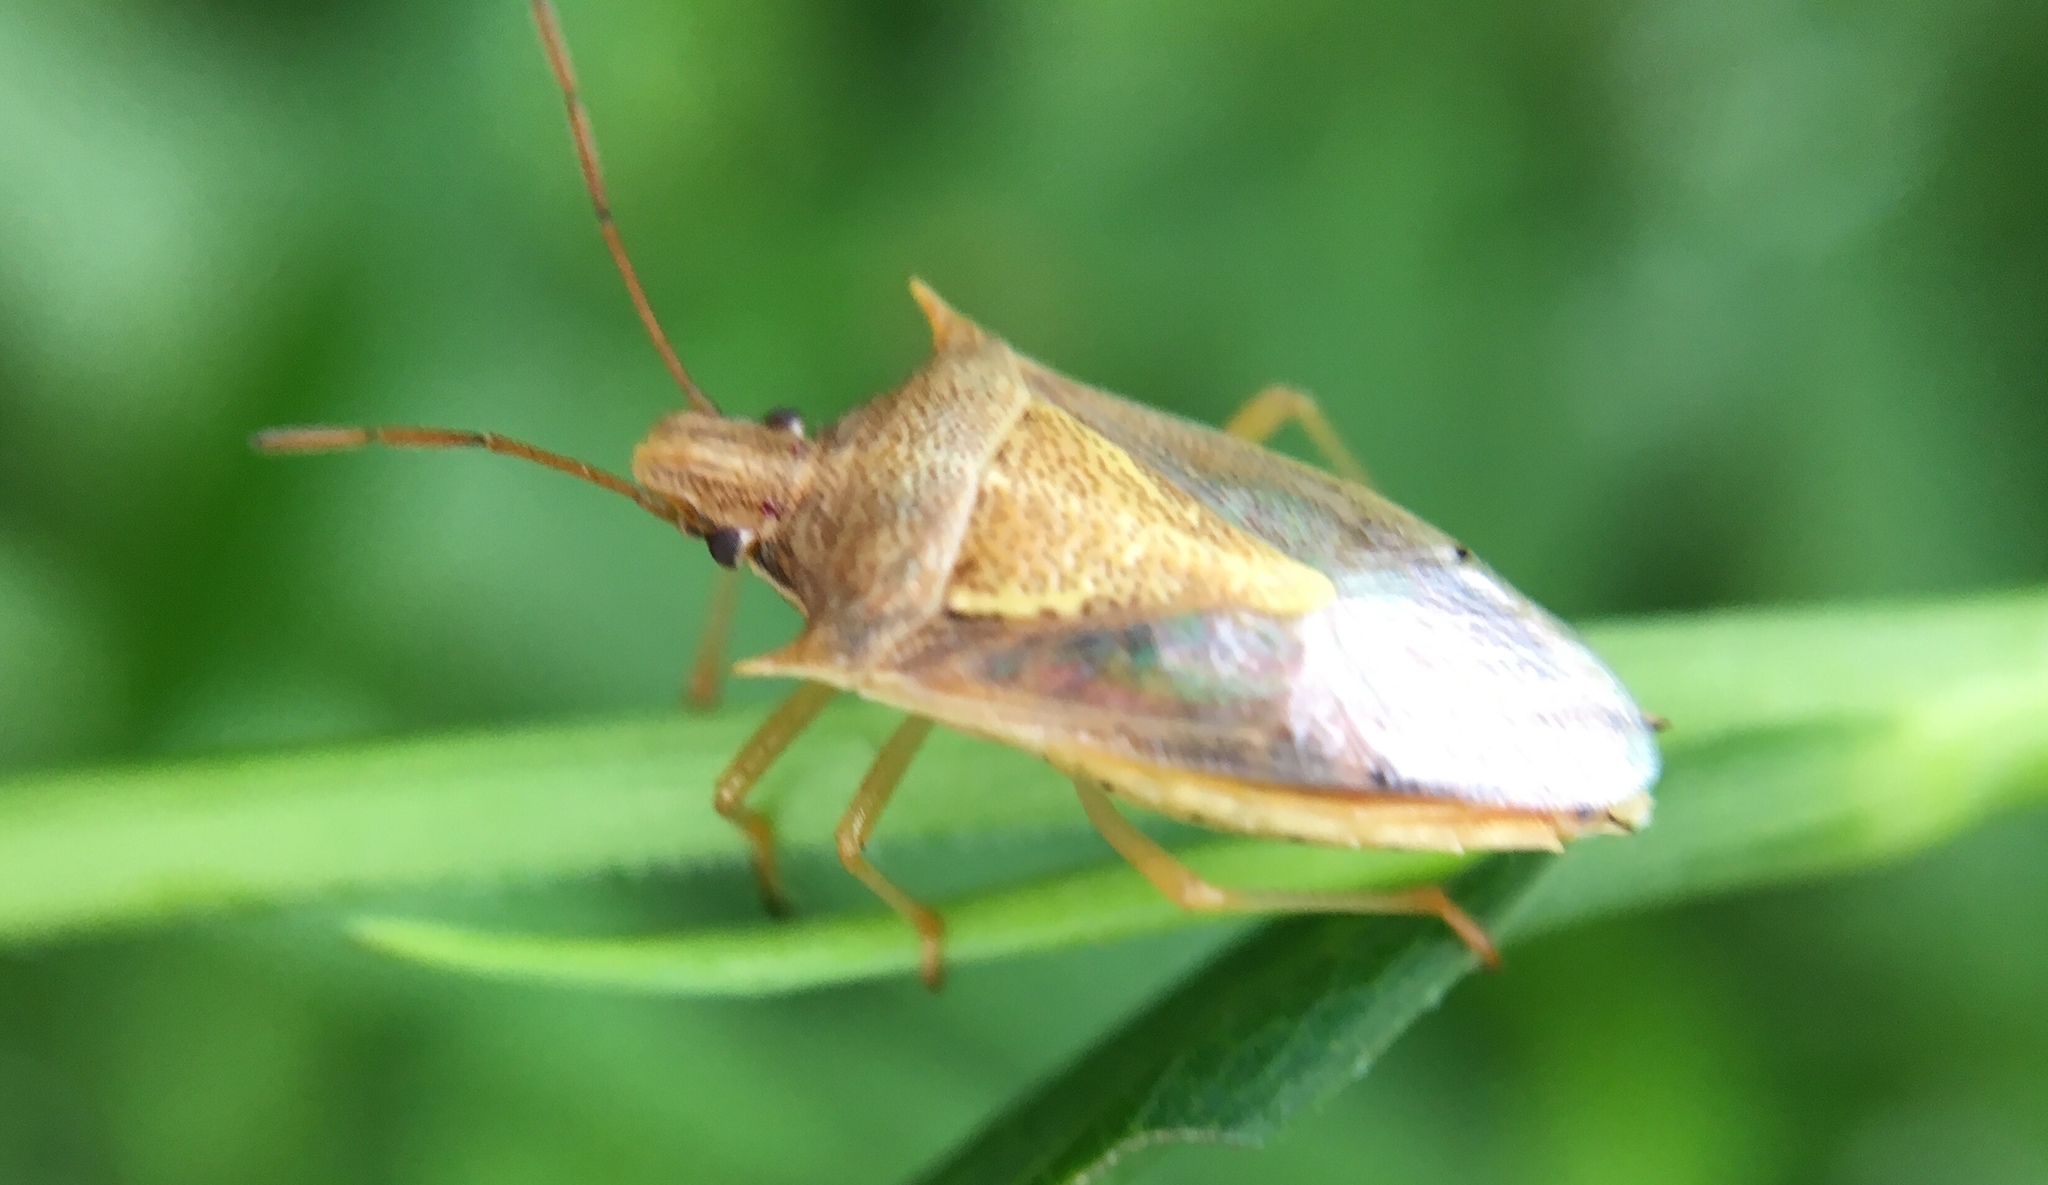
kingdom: Animalia
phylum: Arthropoda
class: Insecta
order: Hemiptera
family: Pentatomidae
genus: Oebalus
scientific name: Oebalus pugnax
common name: Rice stink bug
